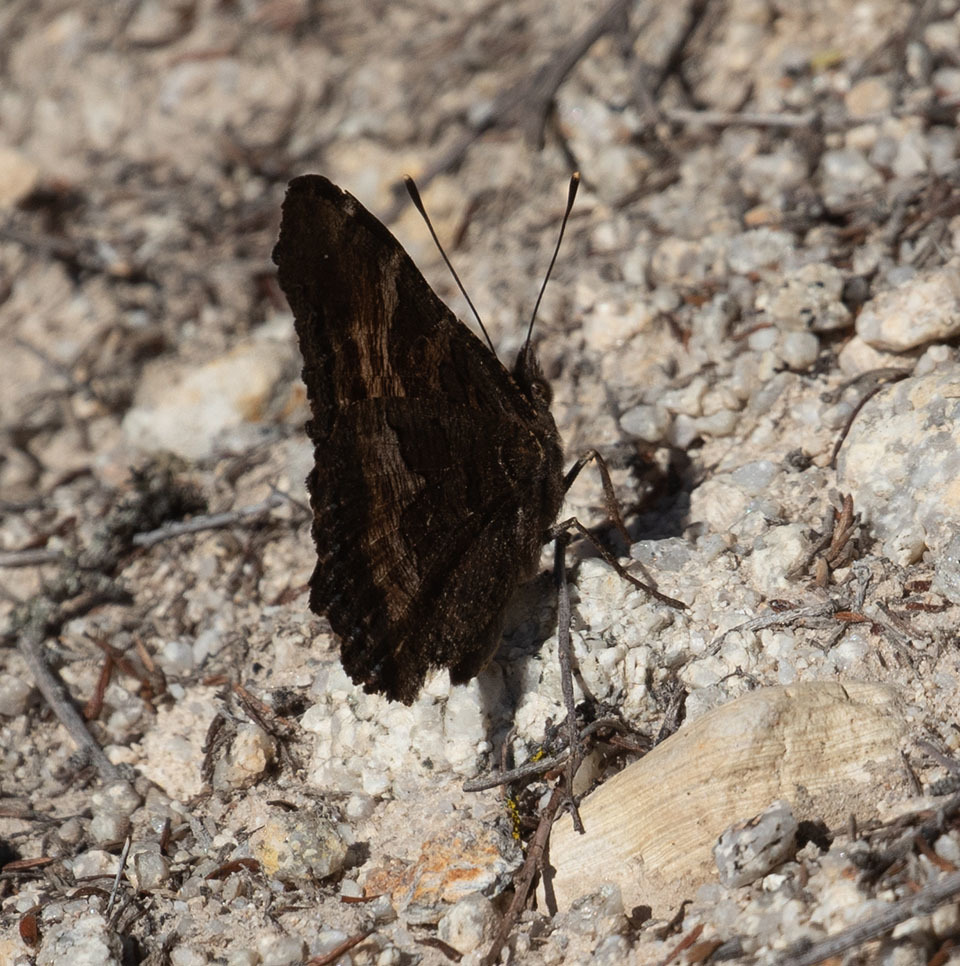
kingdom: Animalia
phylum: Arthropoda
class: Insecta
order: Lepidoptera
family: Nymphalidae
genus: Nymphalis
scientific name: Nymphalis californica
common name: California tortoiseshell
